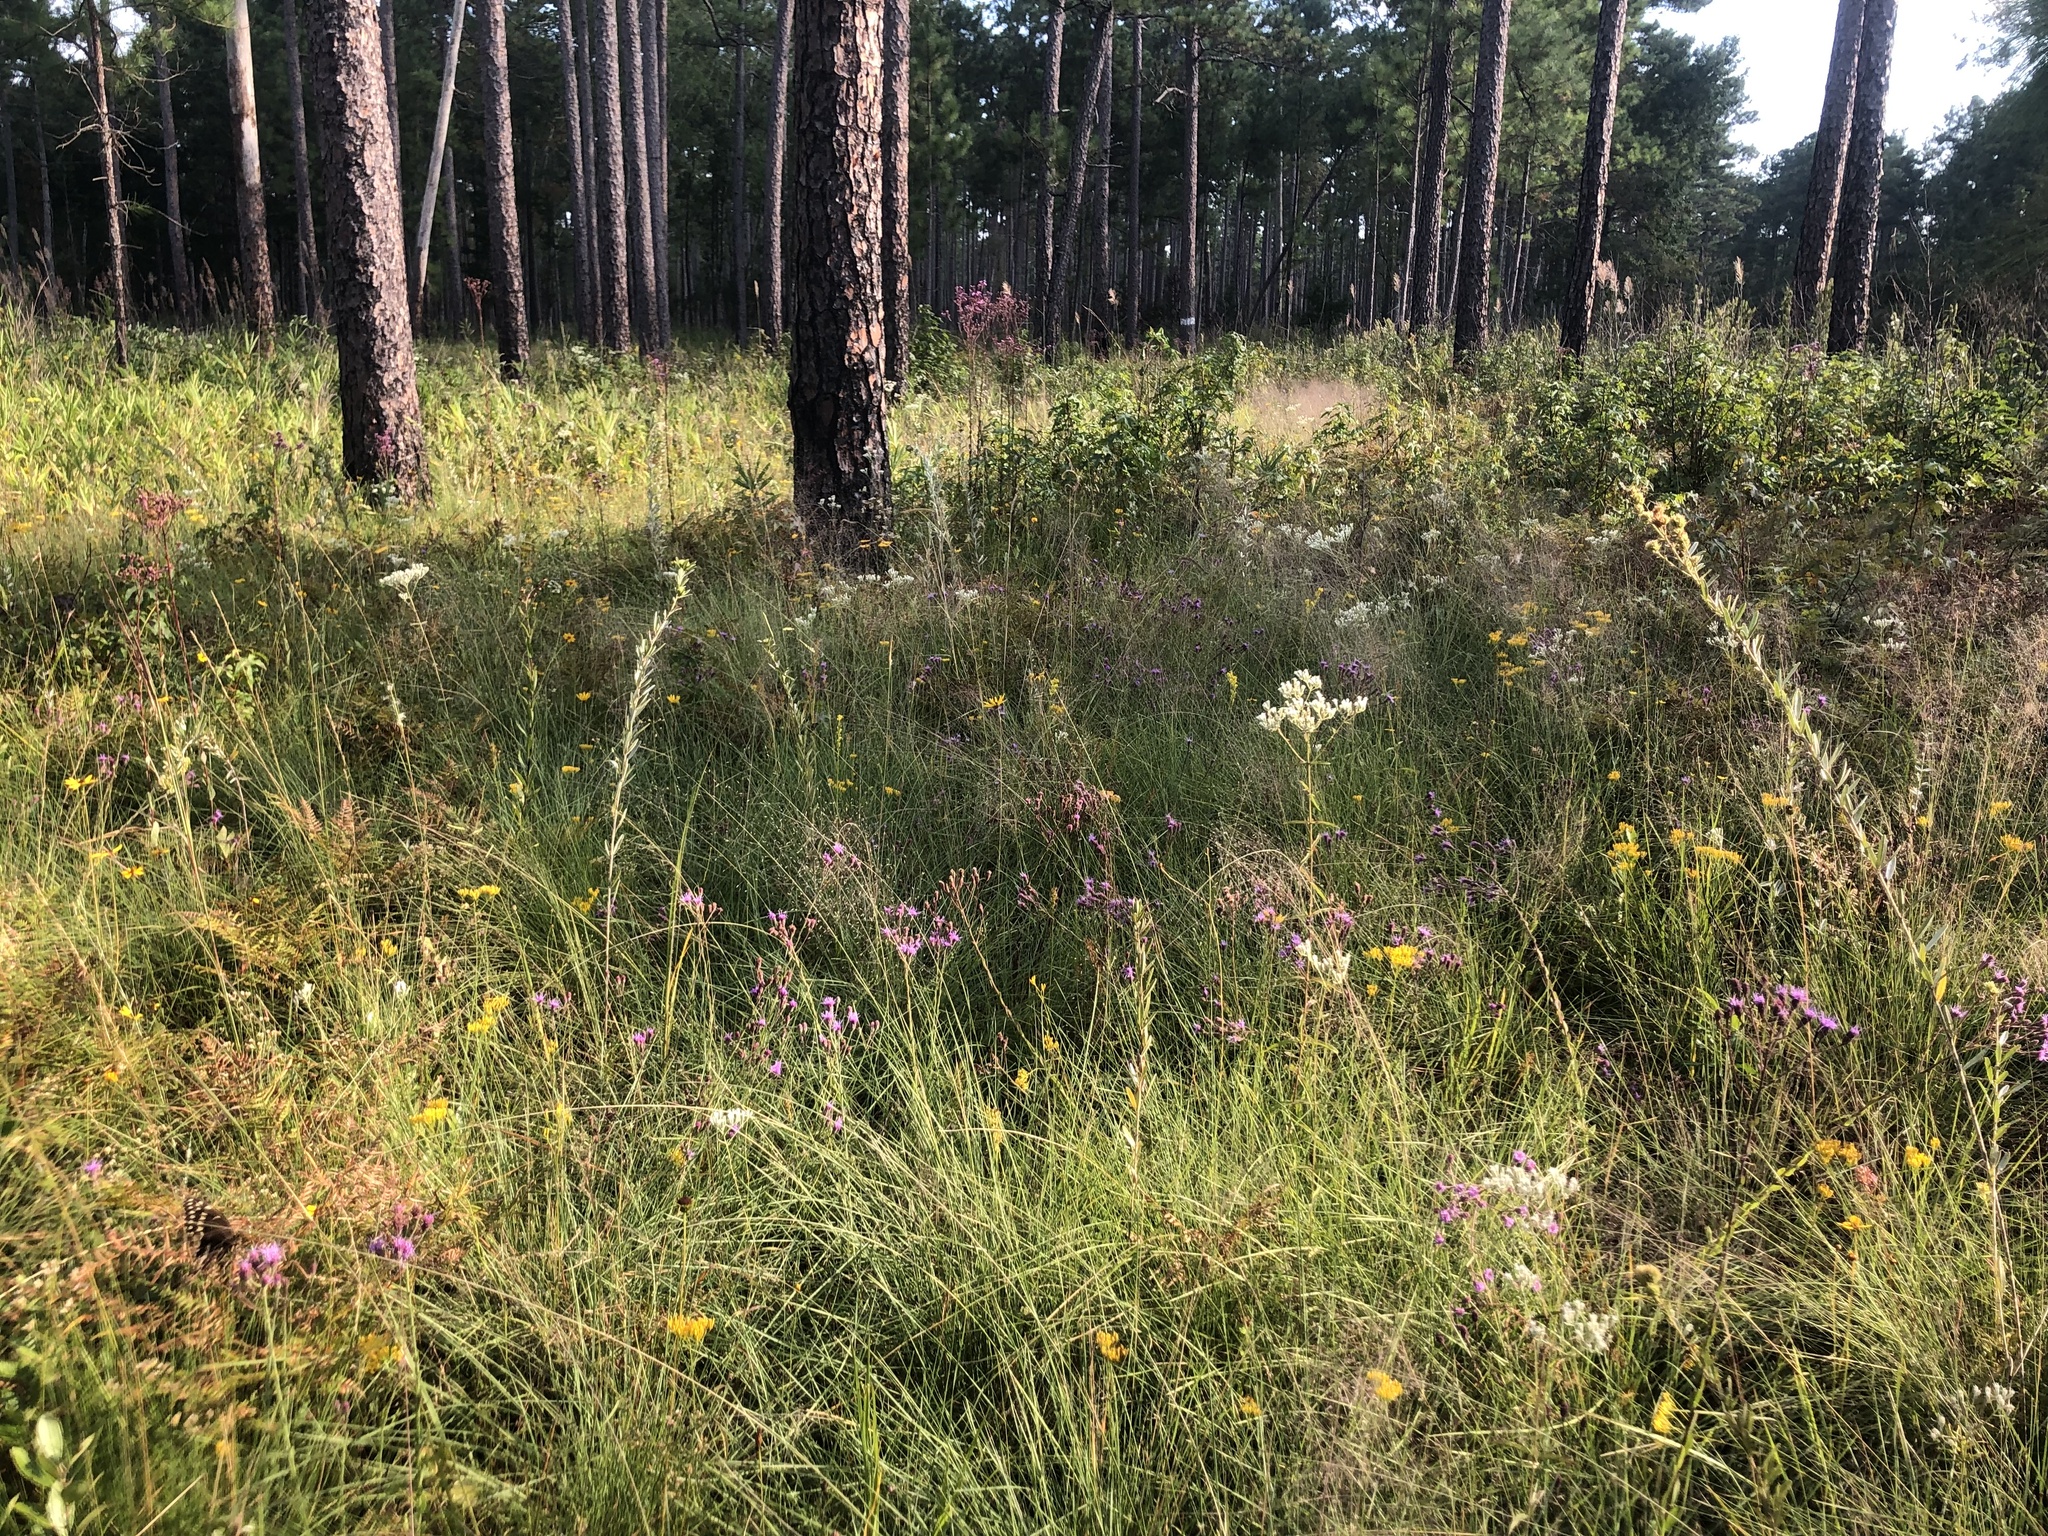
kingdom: Plantae
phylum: Tracheophyta
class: Magnoliopsida
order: Asterales
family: Asteraceae
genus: Carphephorus
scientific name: Carphephorus tomentosus
